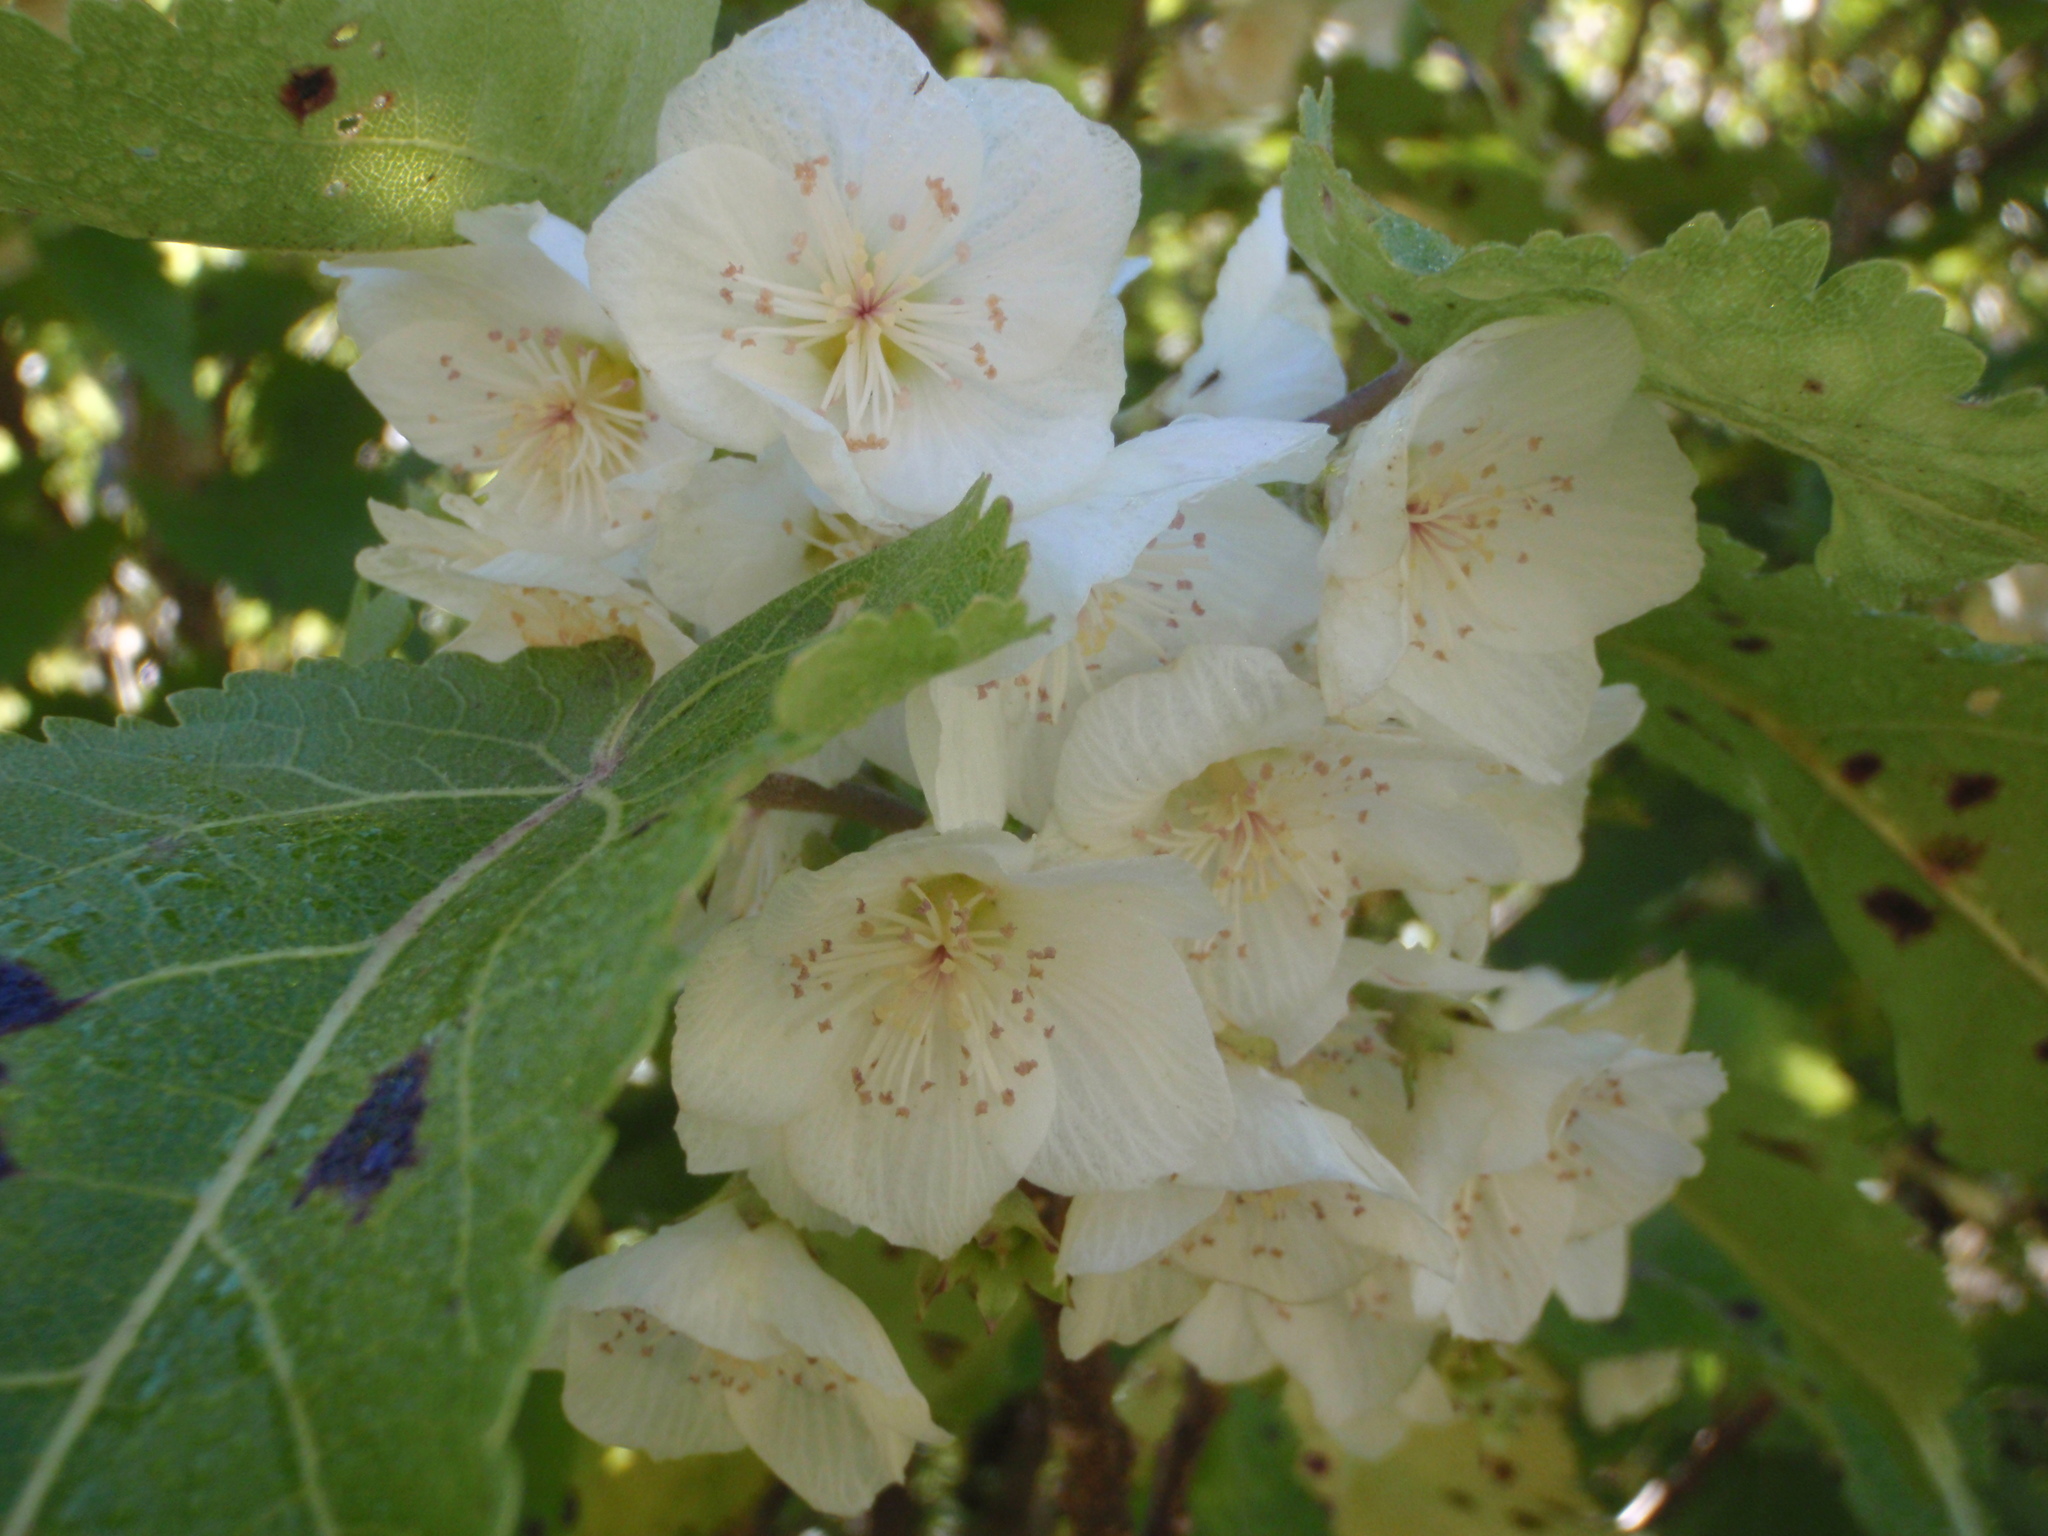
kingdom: Plantae
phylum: Tracheophyta
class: Magnoliopsida
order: Malvales
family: Malvaceae
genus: Hoheria
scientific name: Hoheria glabrata
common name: Mountain-ribbon
